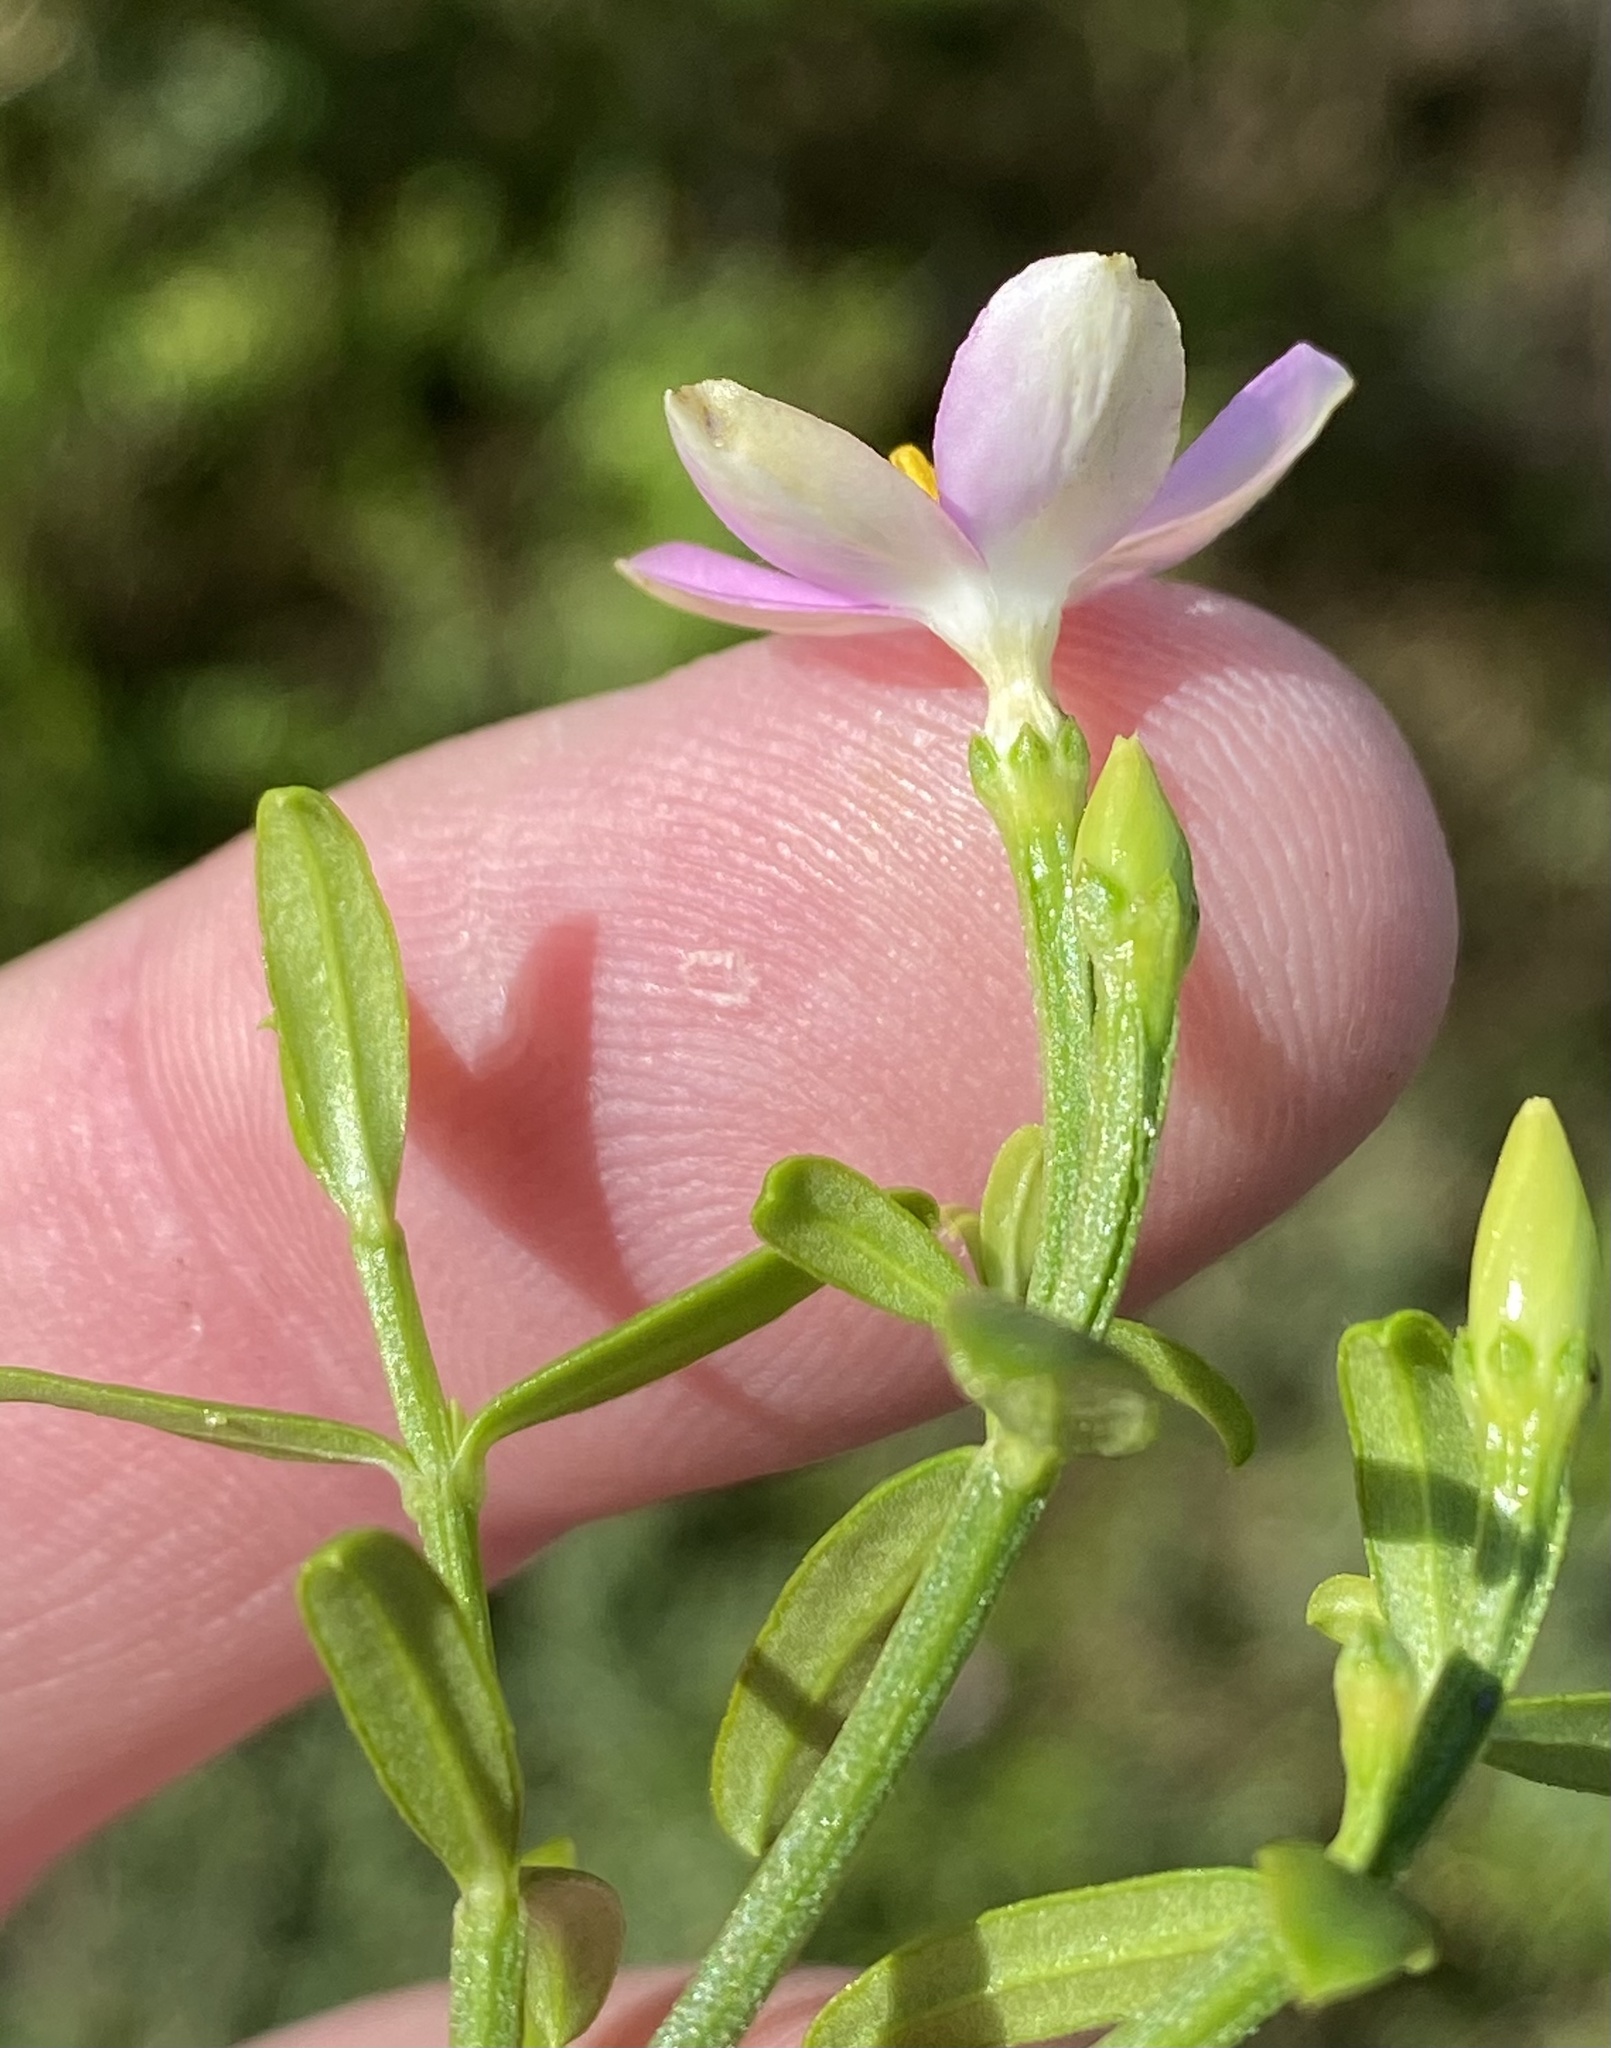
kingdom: Plantae
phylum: Tracheophyta
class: Magnoliopsida
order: Gentianales
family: Gentianaceae
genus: Chironia
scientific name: Chironia baccifera
